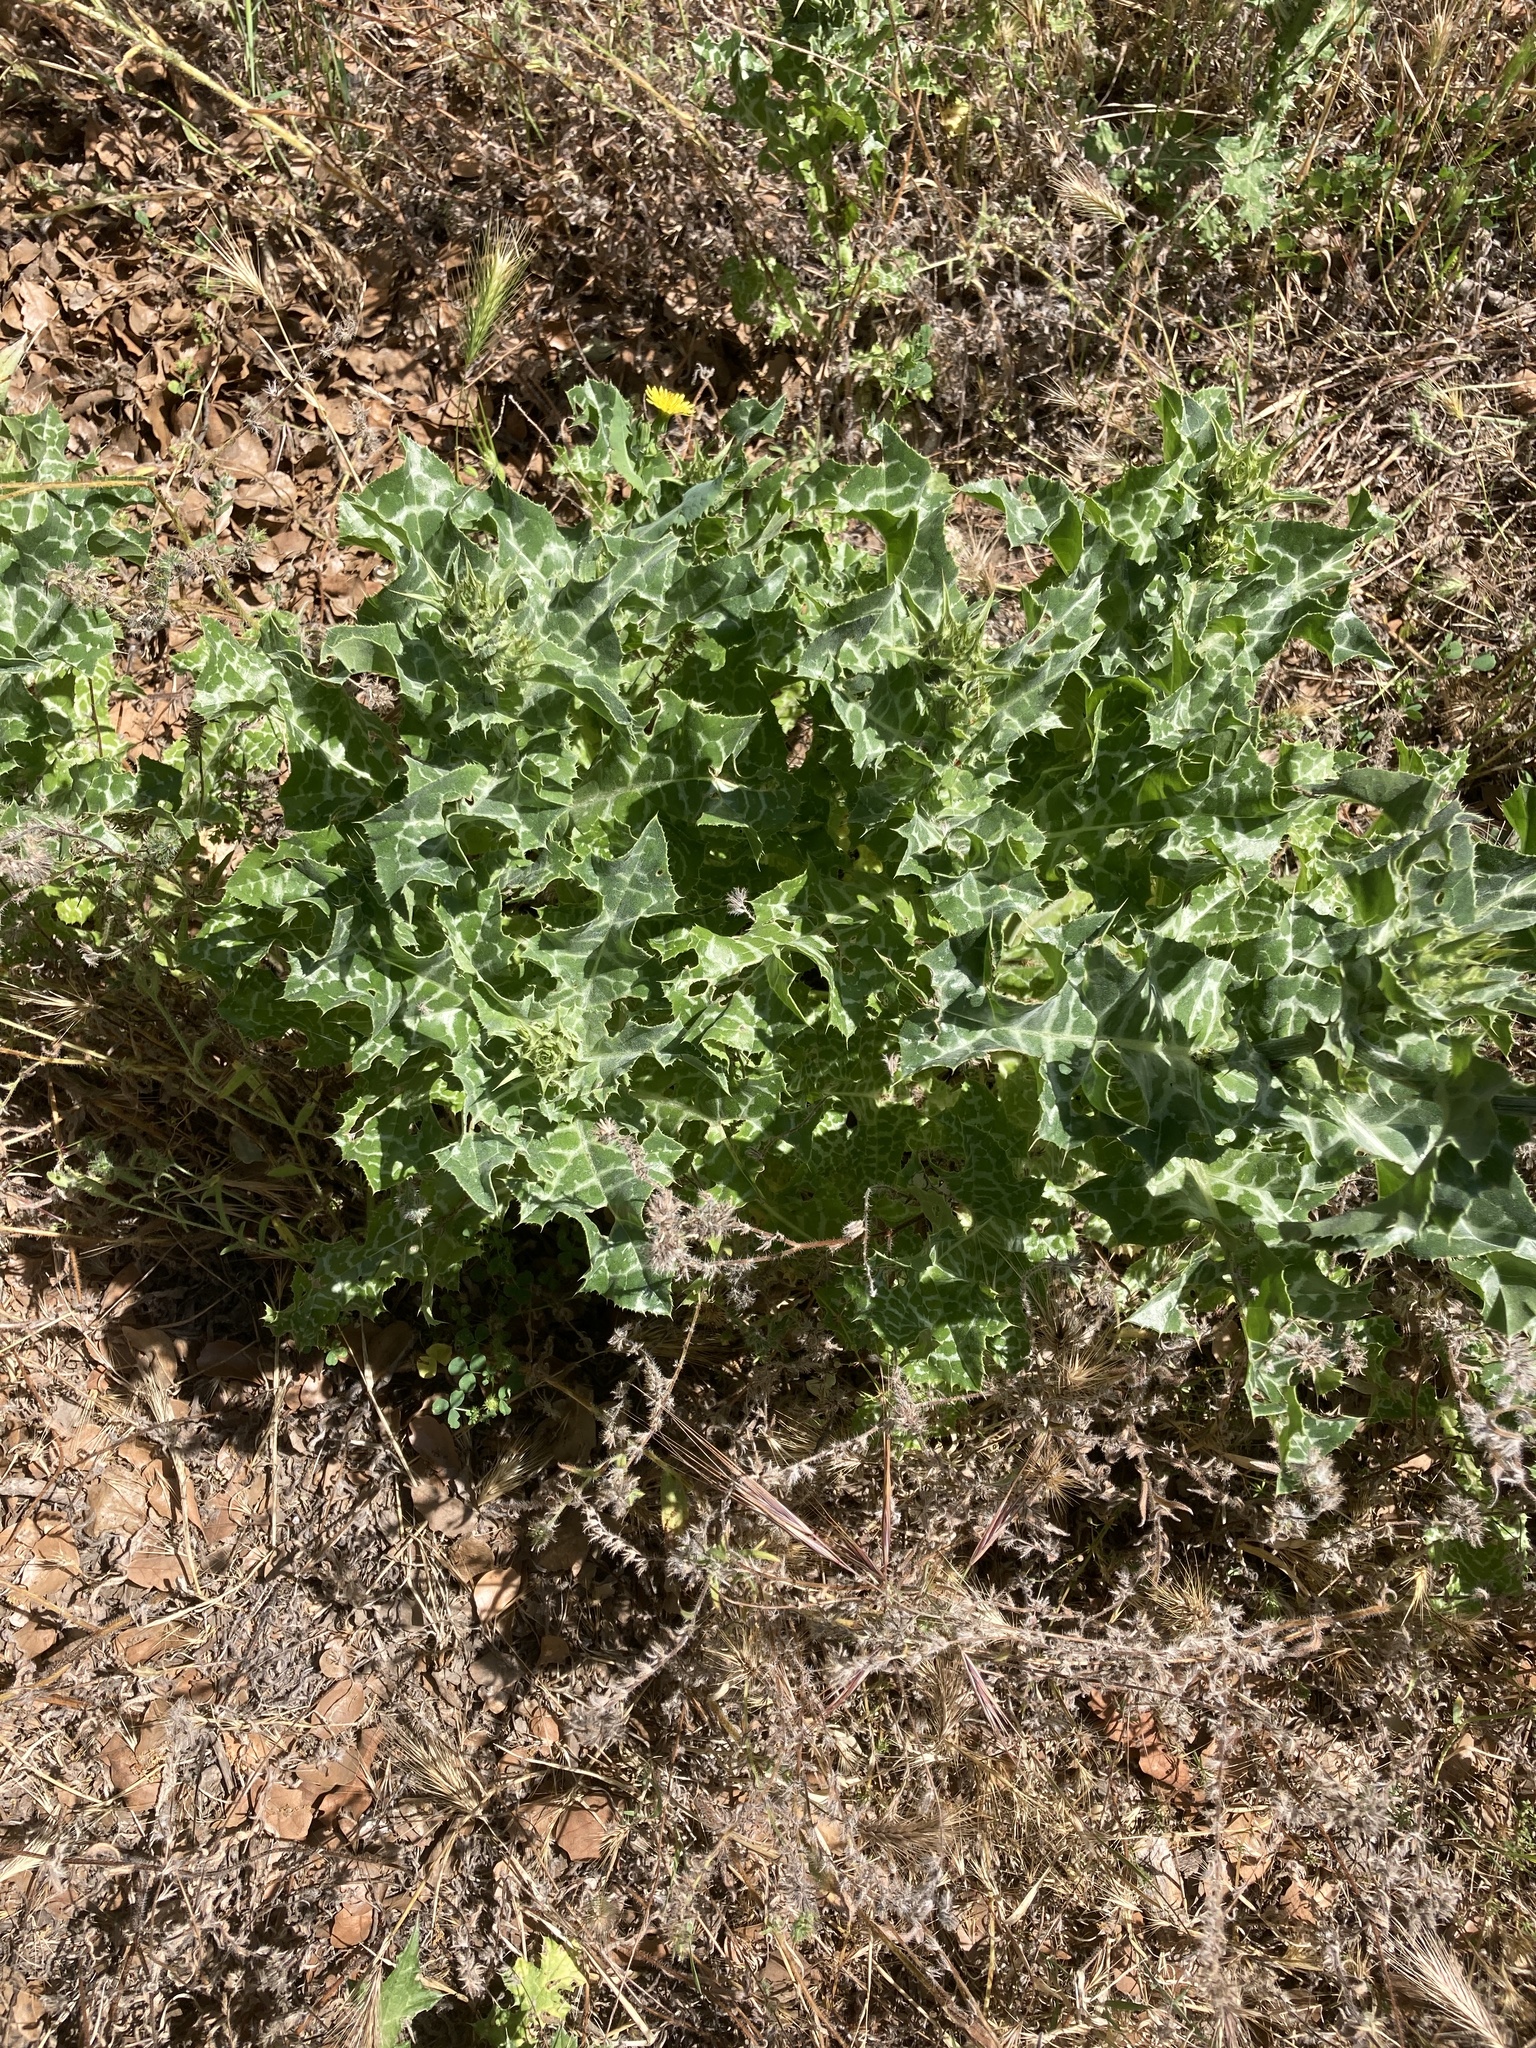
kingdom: Plantae
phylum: Tracheophyta
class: Magnoliopsida
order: Asterales
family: Asteraceae
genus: Silybum
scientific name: Silybum marianum
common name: Milk thistle
